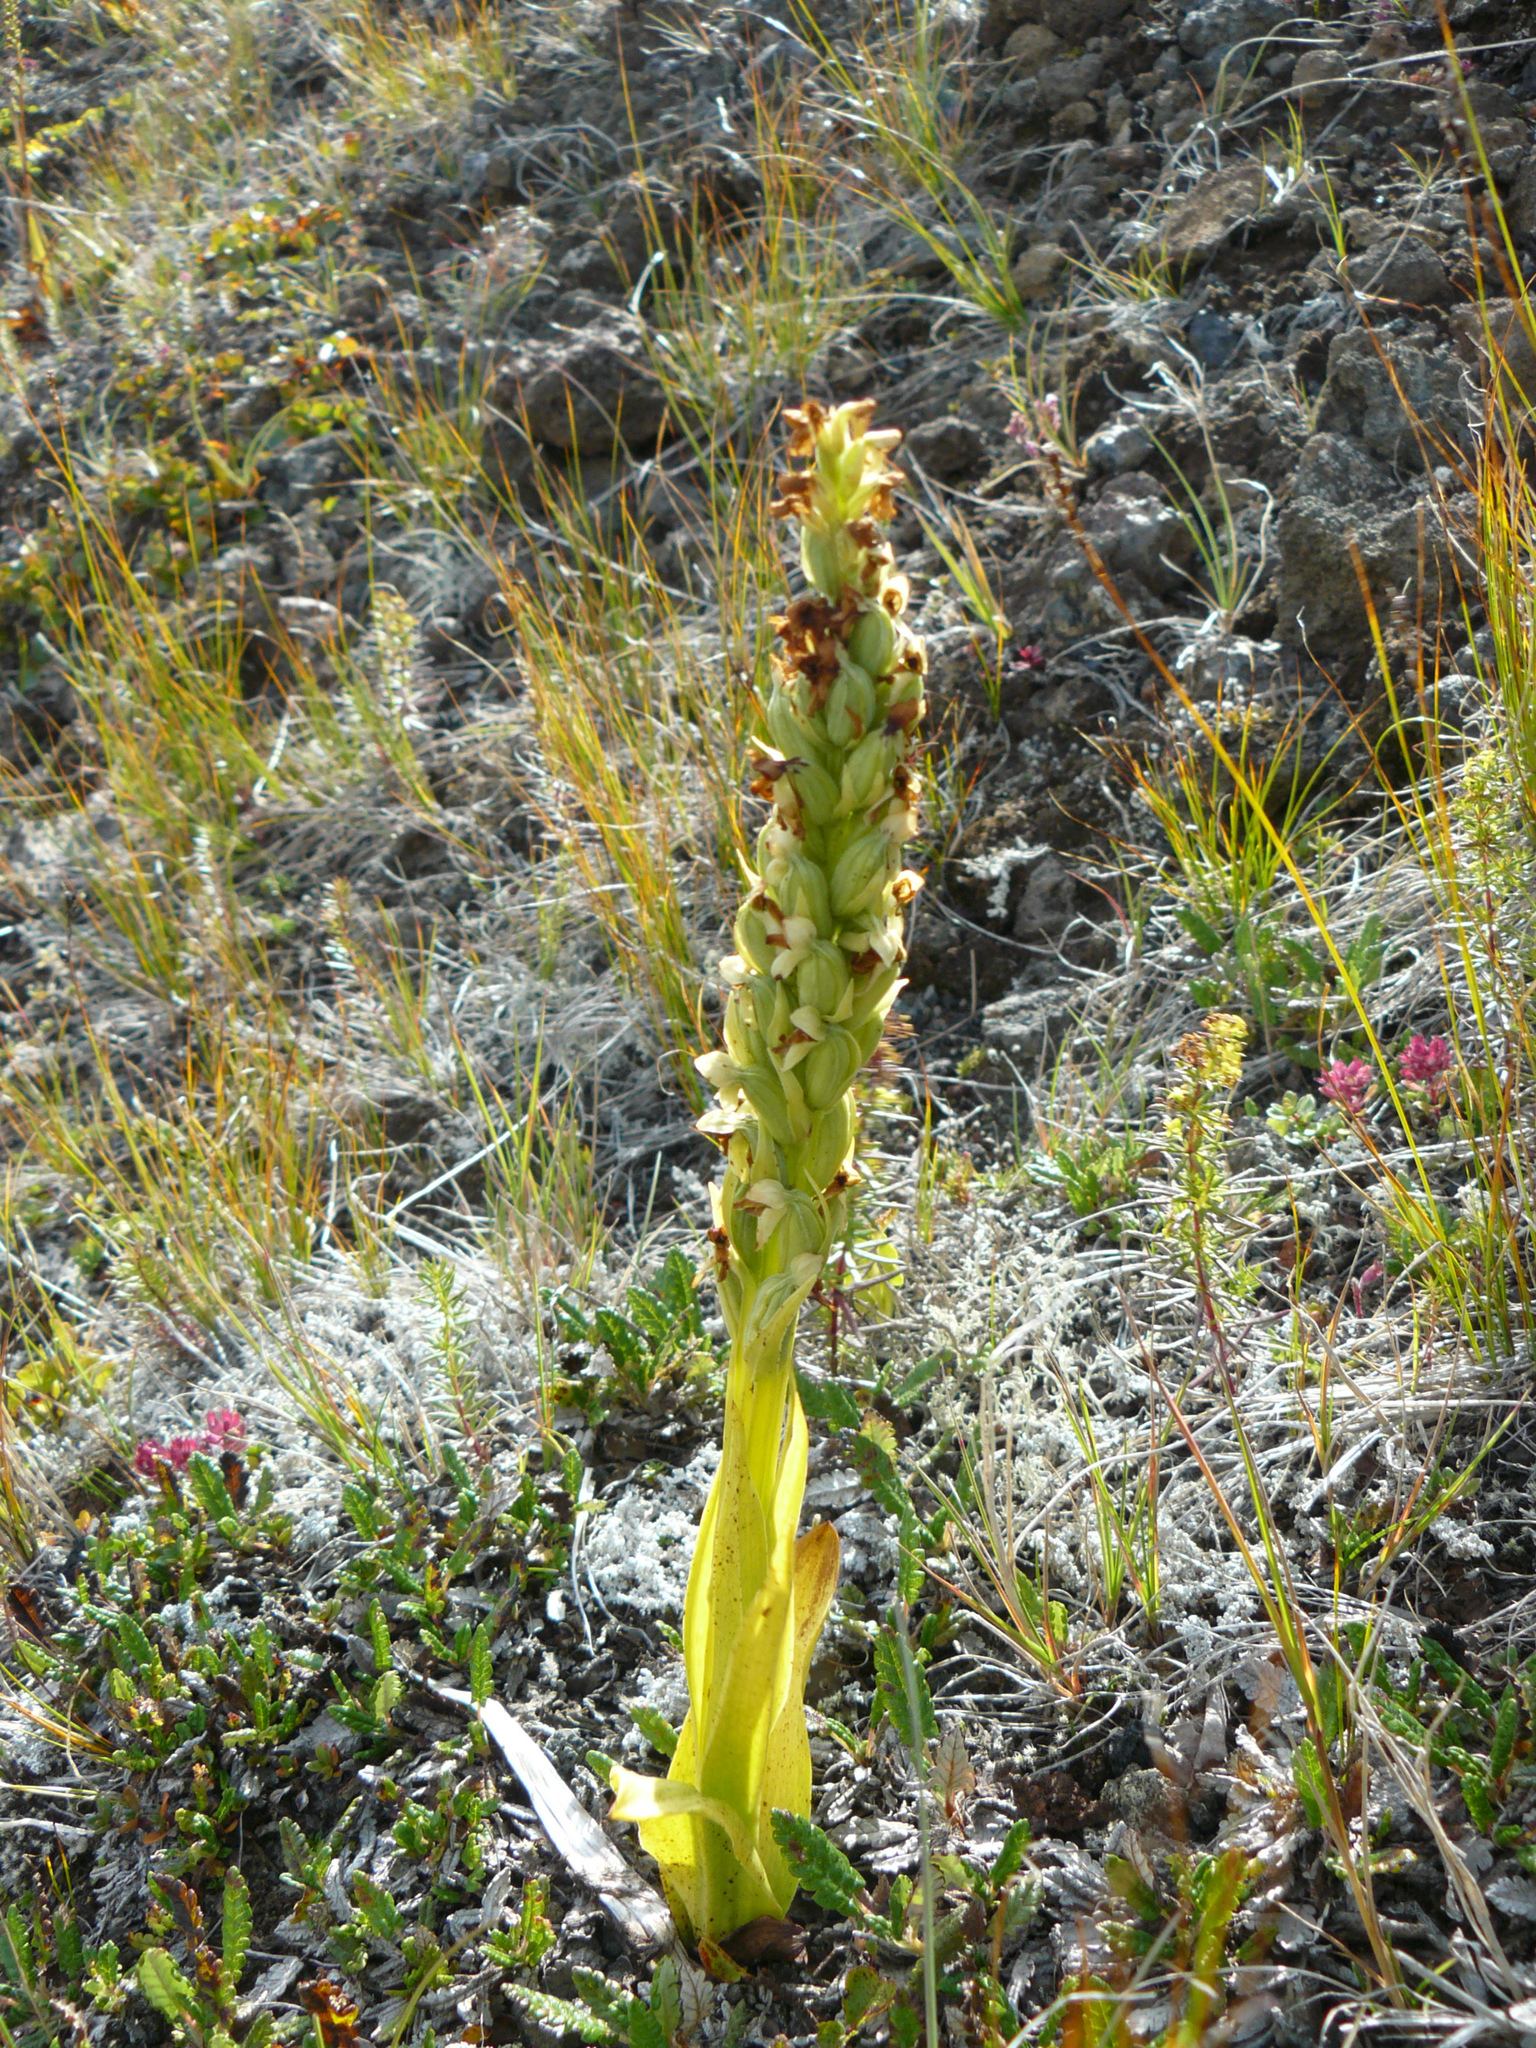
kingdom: Plantae
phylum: Tracheophyta
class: Liliopsida
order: Asparagales
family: Orchidaceae
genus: Platanthera
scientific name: Platanthera hyperborea
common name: Northern green orchid
